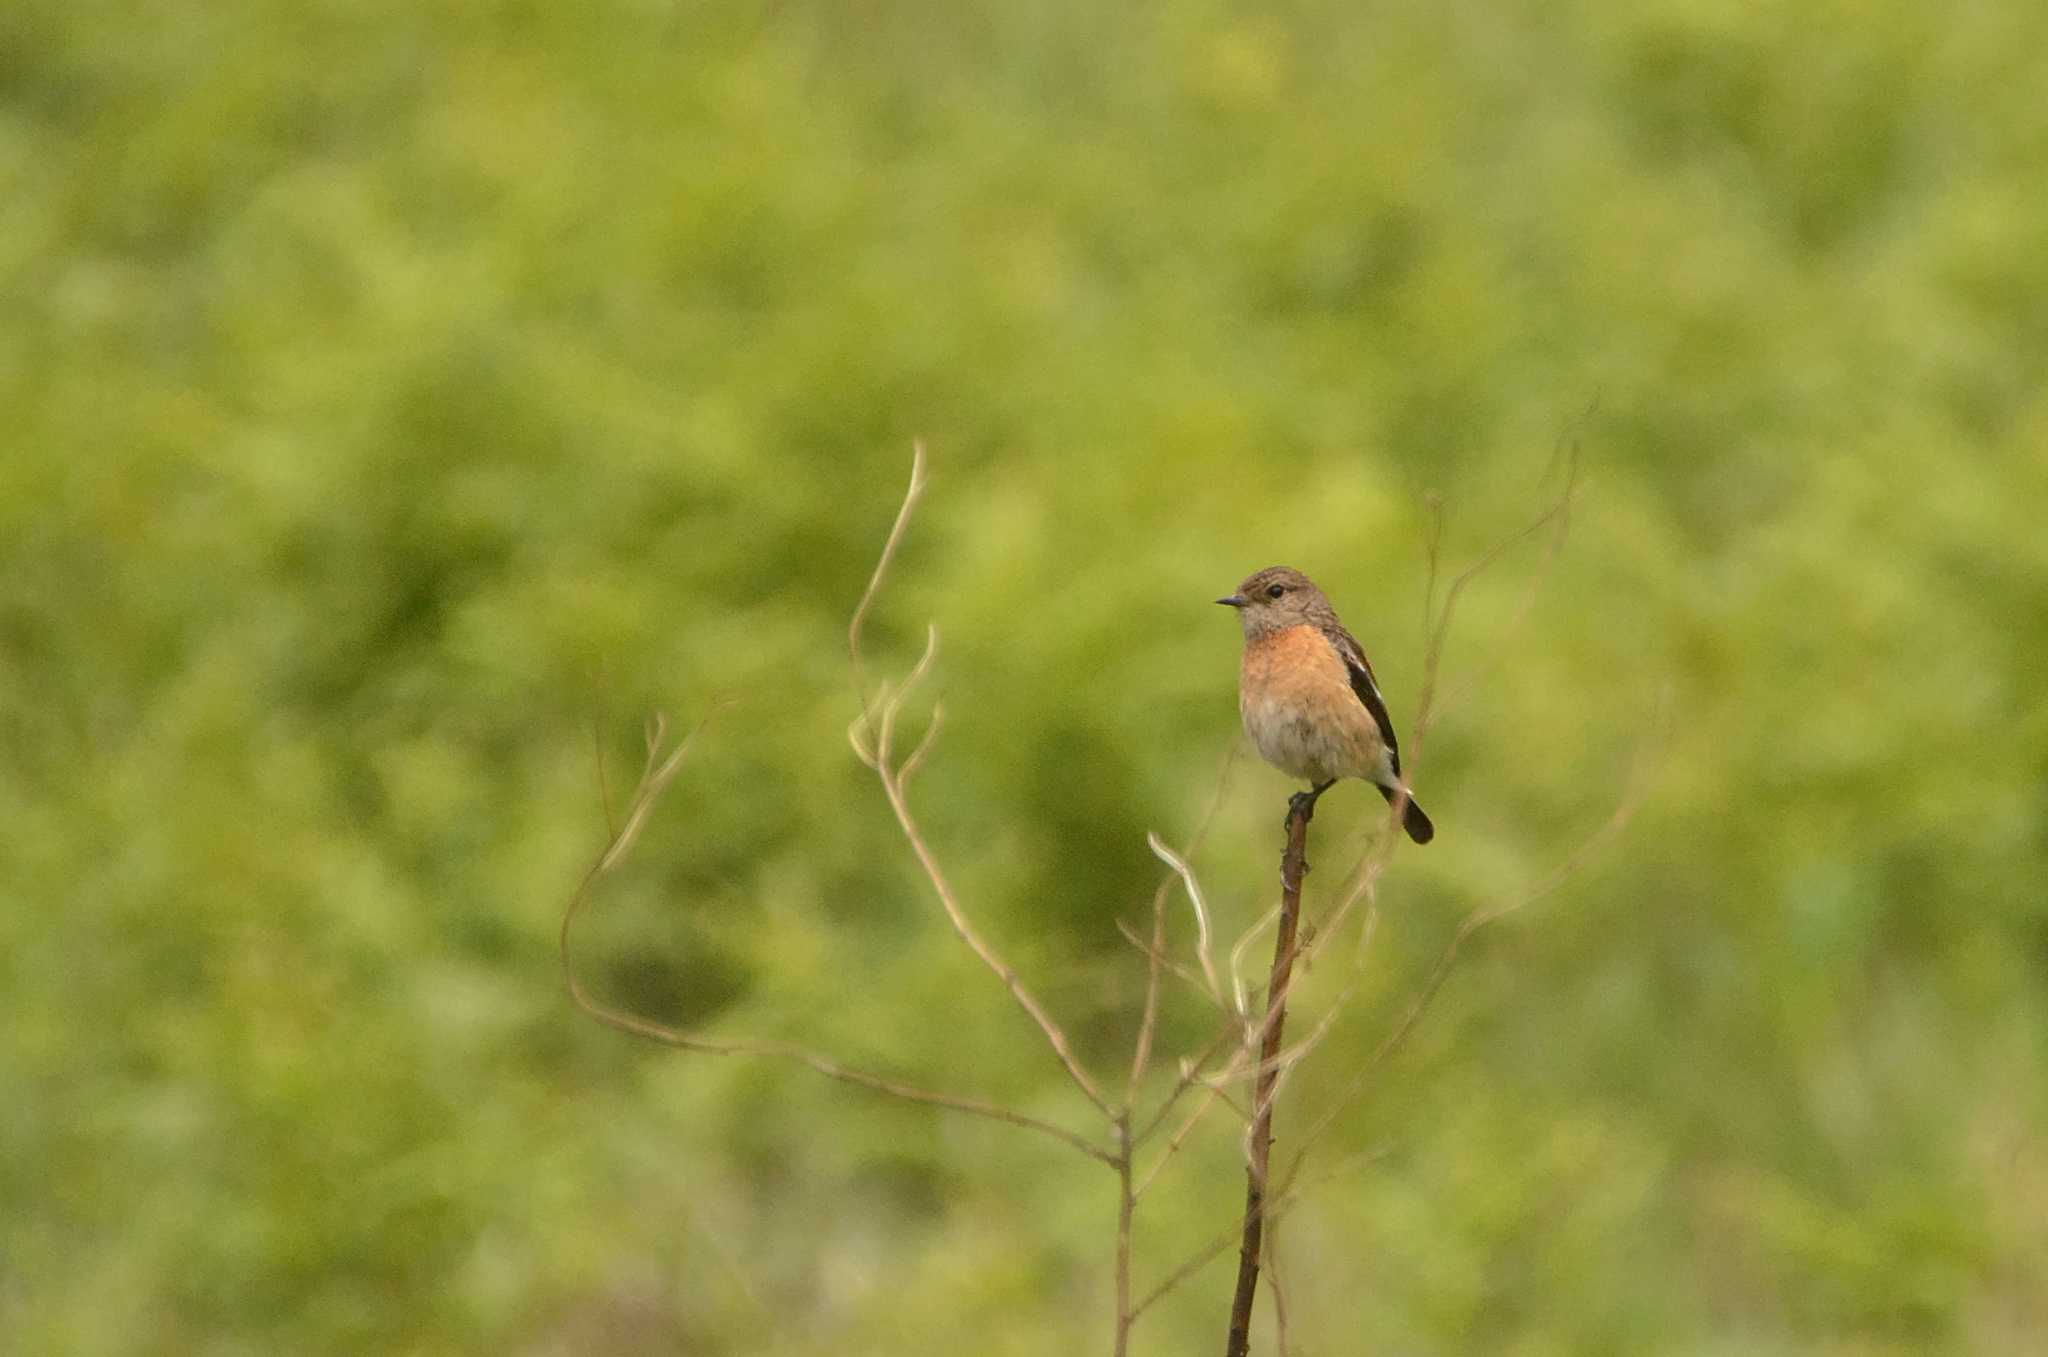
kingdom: Animalia
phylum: Chordata
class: Aves
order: Passeriformes
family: Muscicapidae
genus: Saxicola
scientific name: Saxicola torquatus
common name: African stonechat
